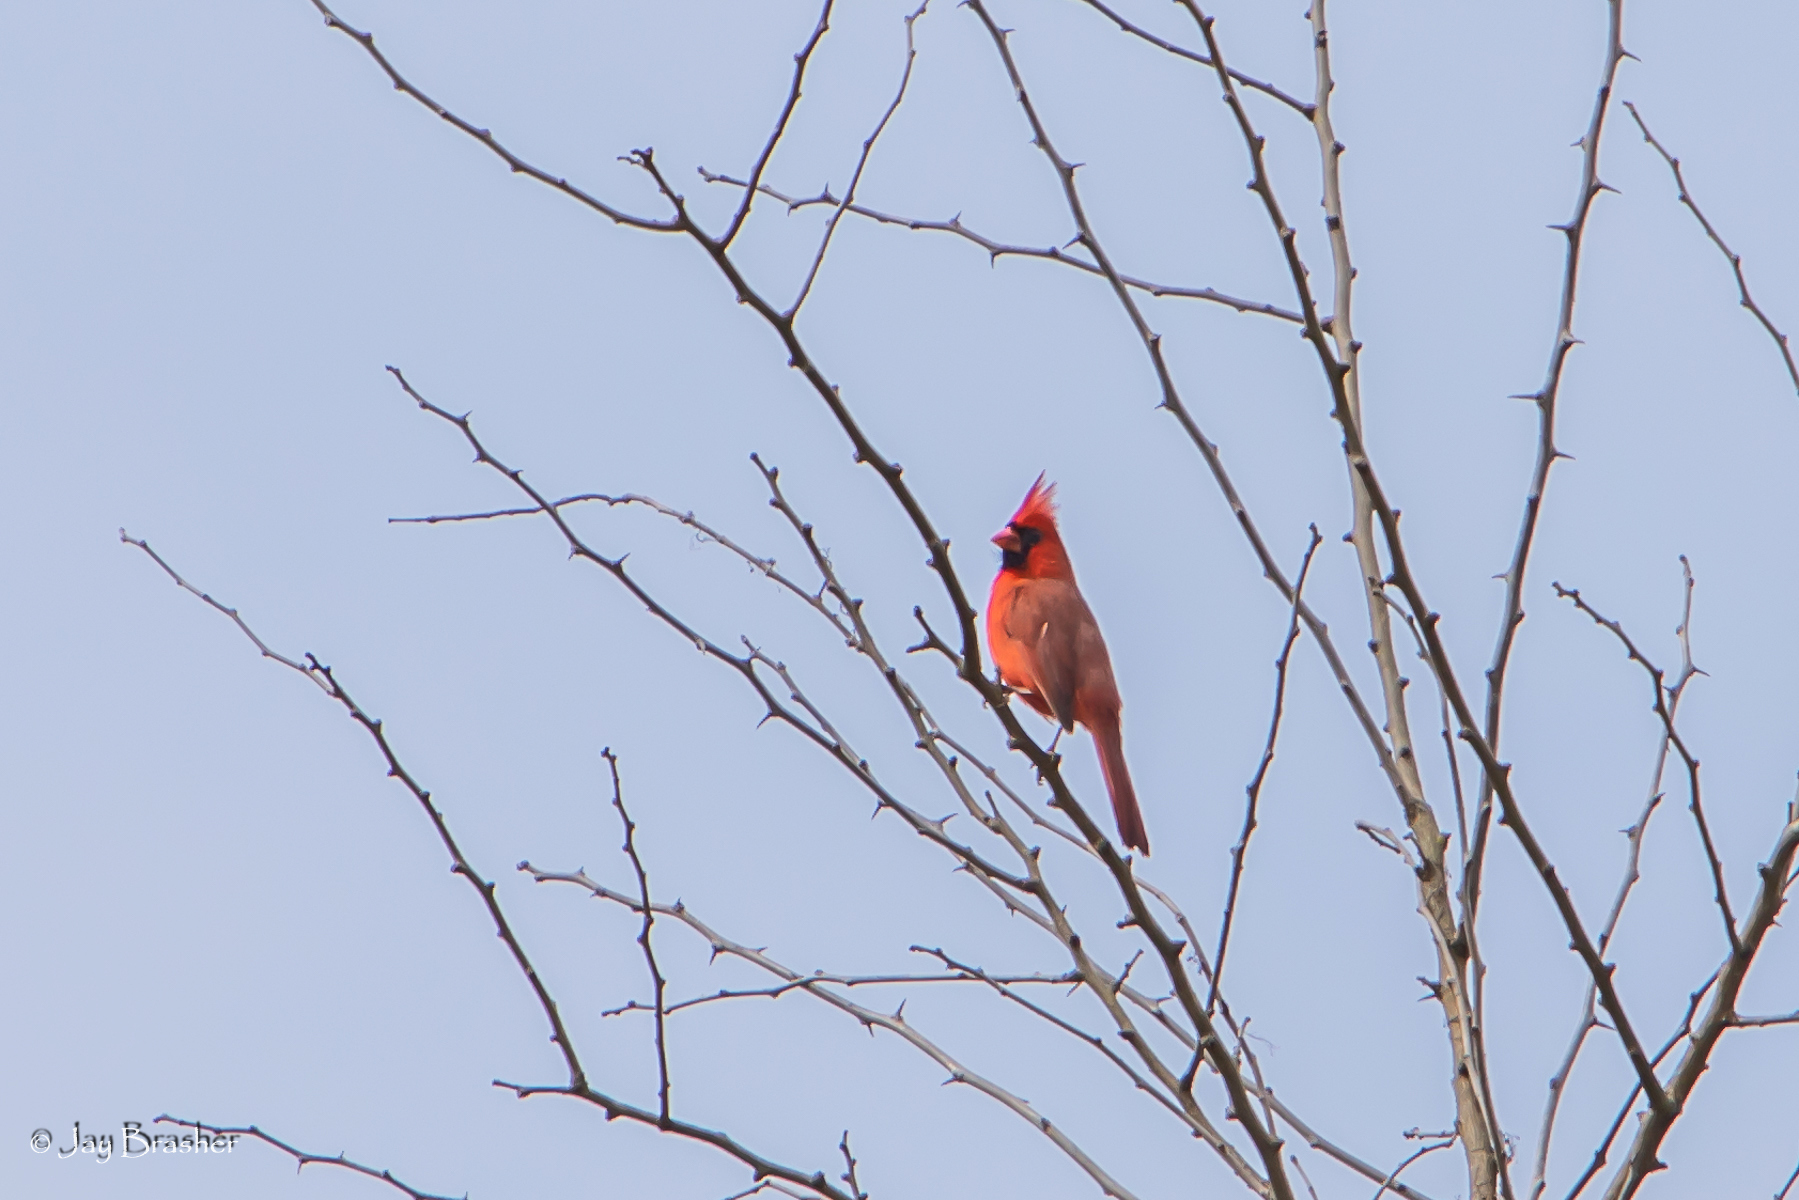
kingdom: Animalia
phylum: Chordata
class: Aves
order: Passeriformes
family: Cardinalidae
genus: Cardinalis
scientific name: Cardinalis cardinalis
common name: Northern cardinal
